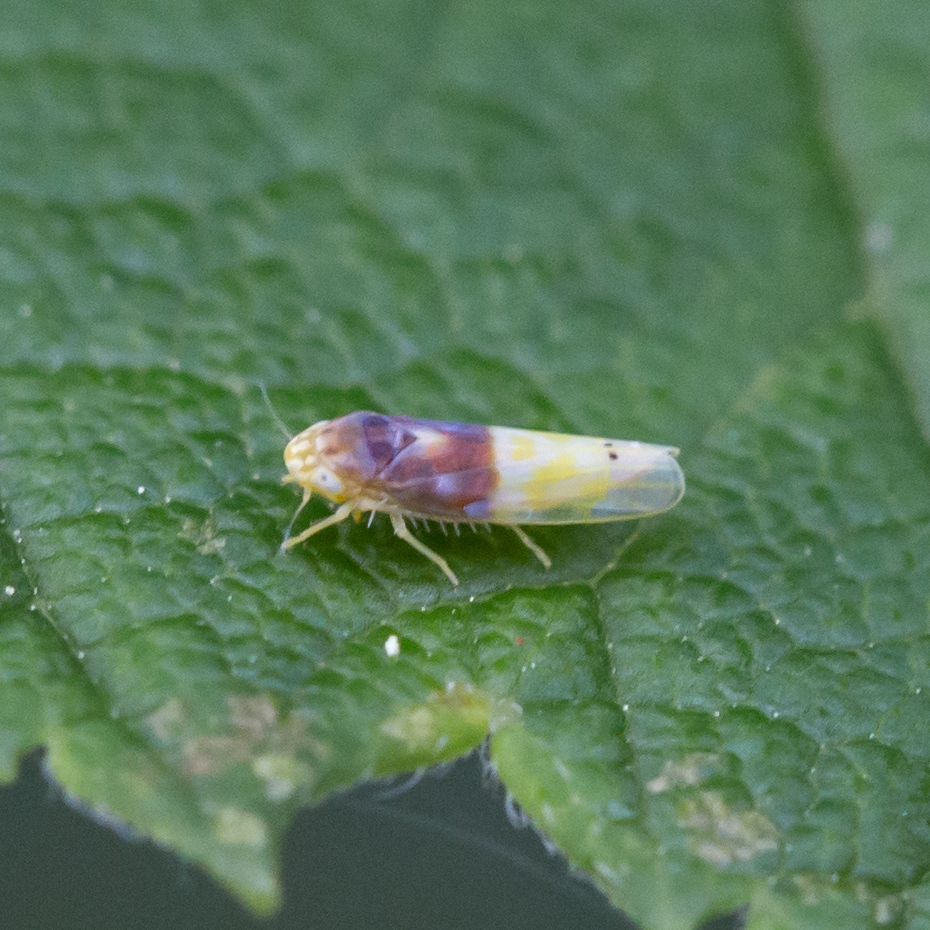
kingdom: Animalia
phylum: Arthropoda
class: Insecta
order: Hemiptera
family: Cicadellidae
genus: Eratoneura
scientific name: Eratoneura basilaris
